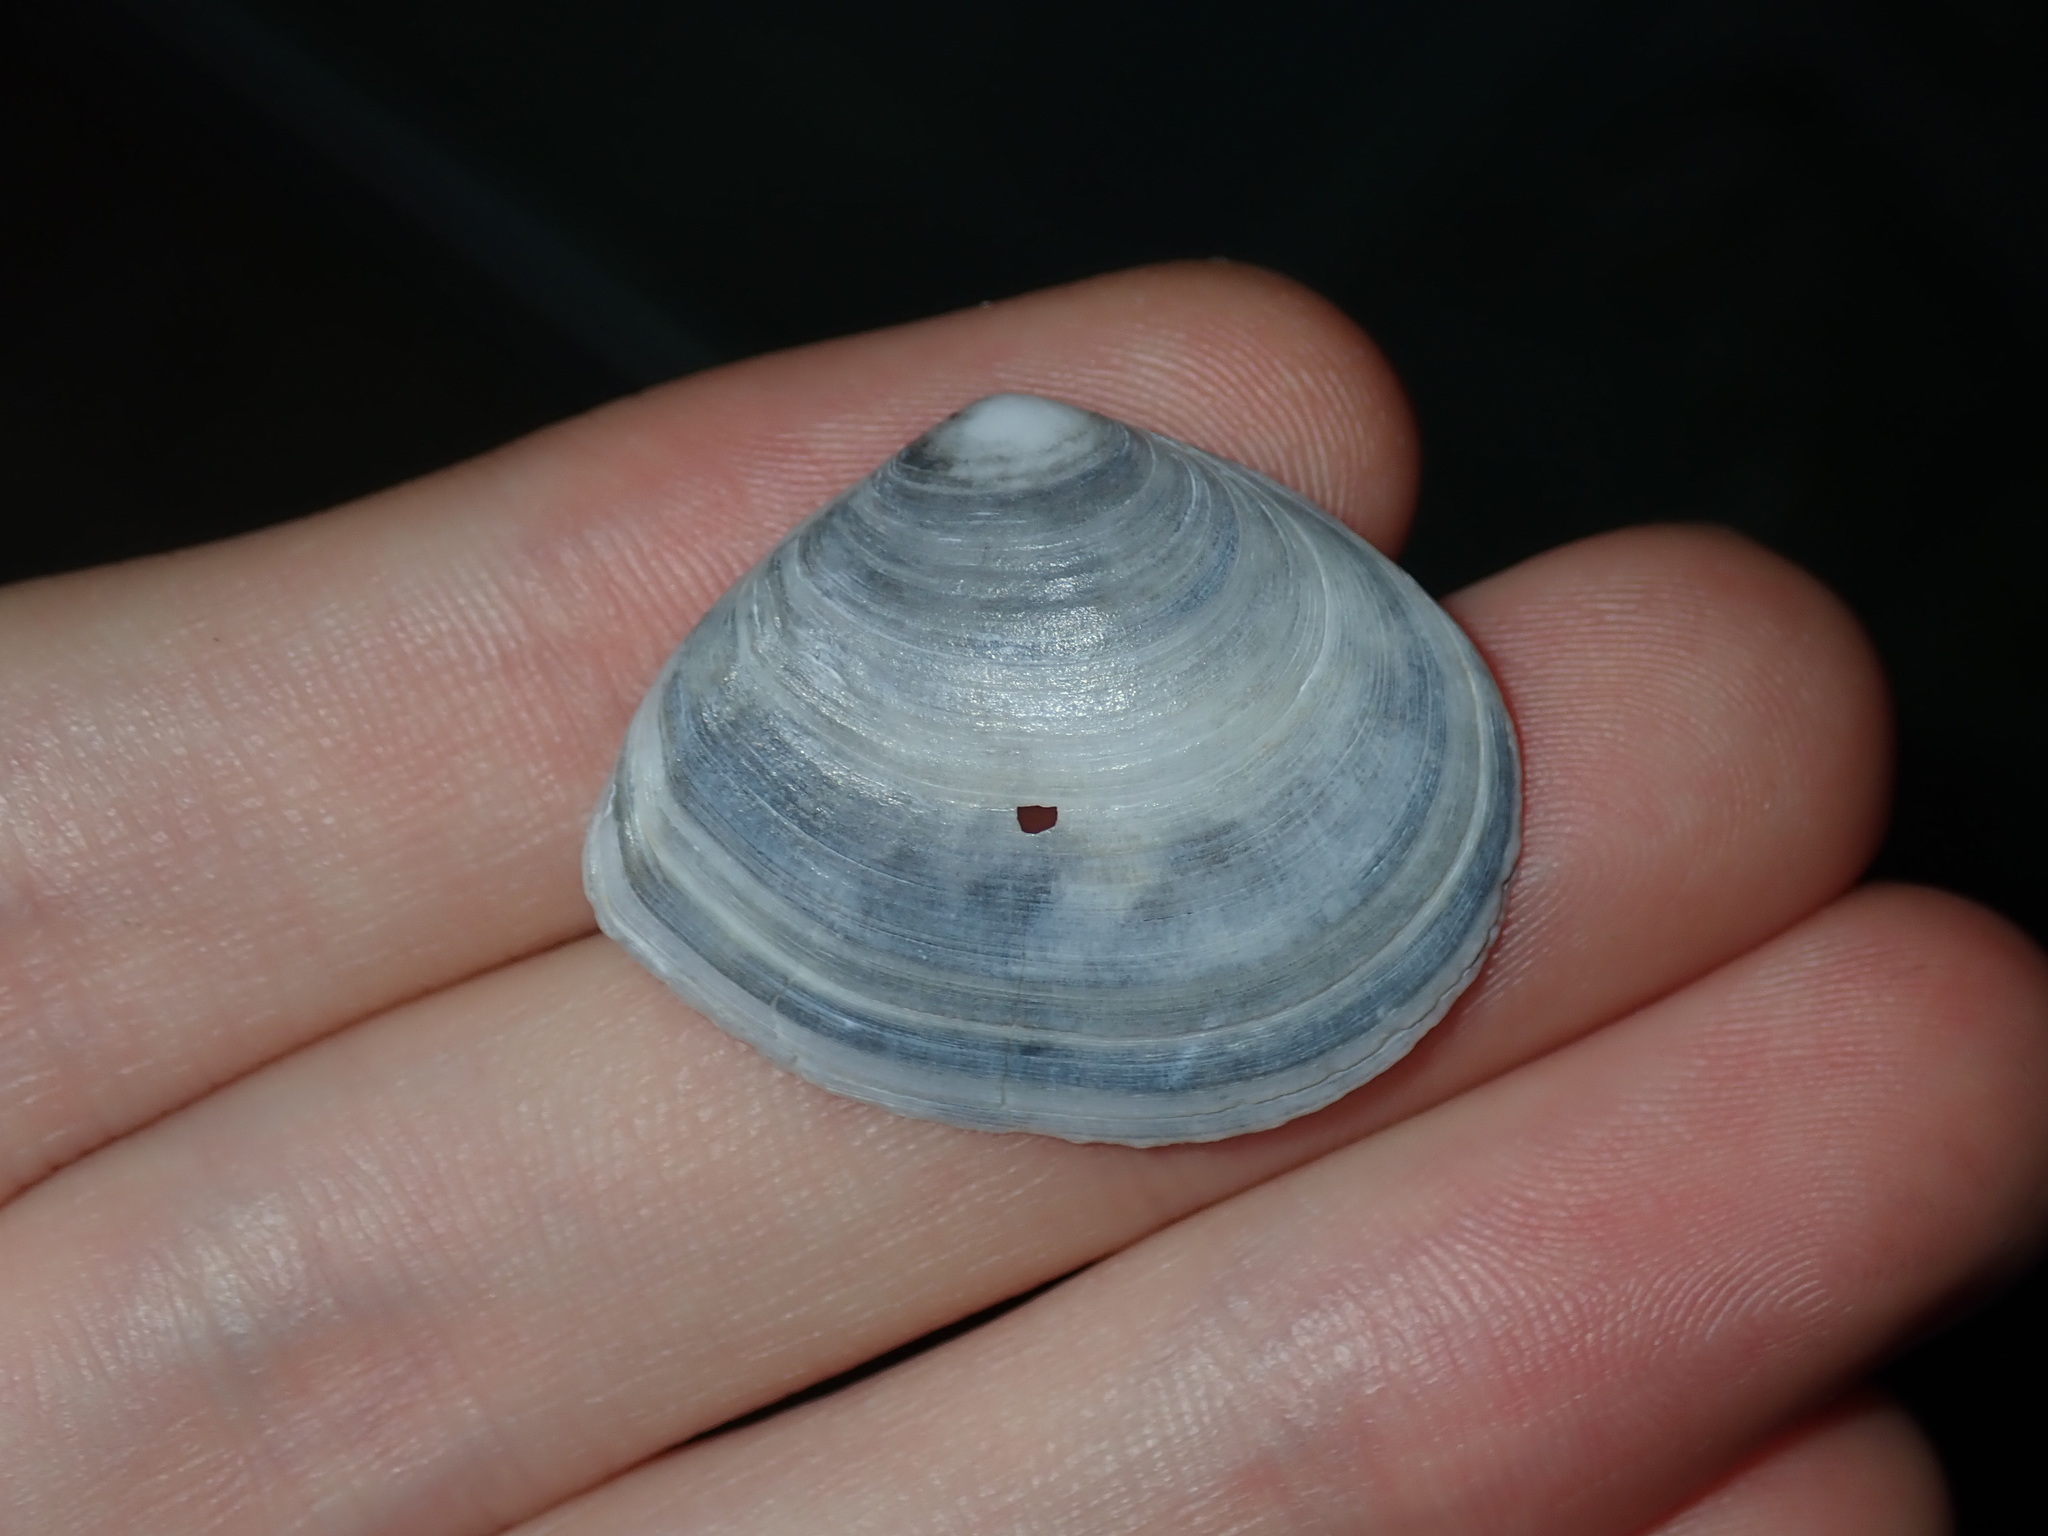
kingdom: Animalia
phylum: Mollusca
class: Bivalvia
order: Cardiida
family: Tellinidae
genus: Macomona
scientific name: Macomona deltoidalis
